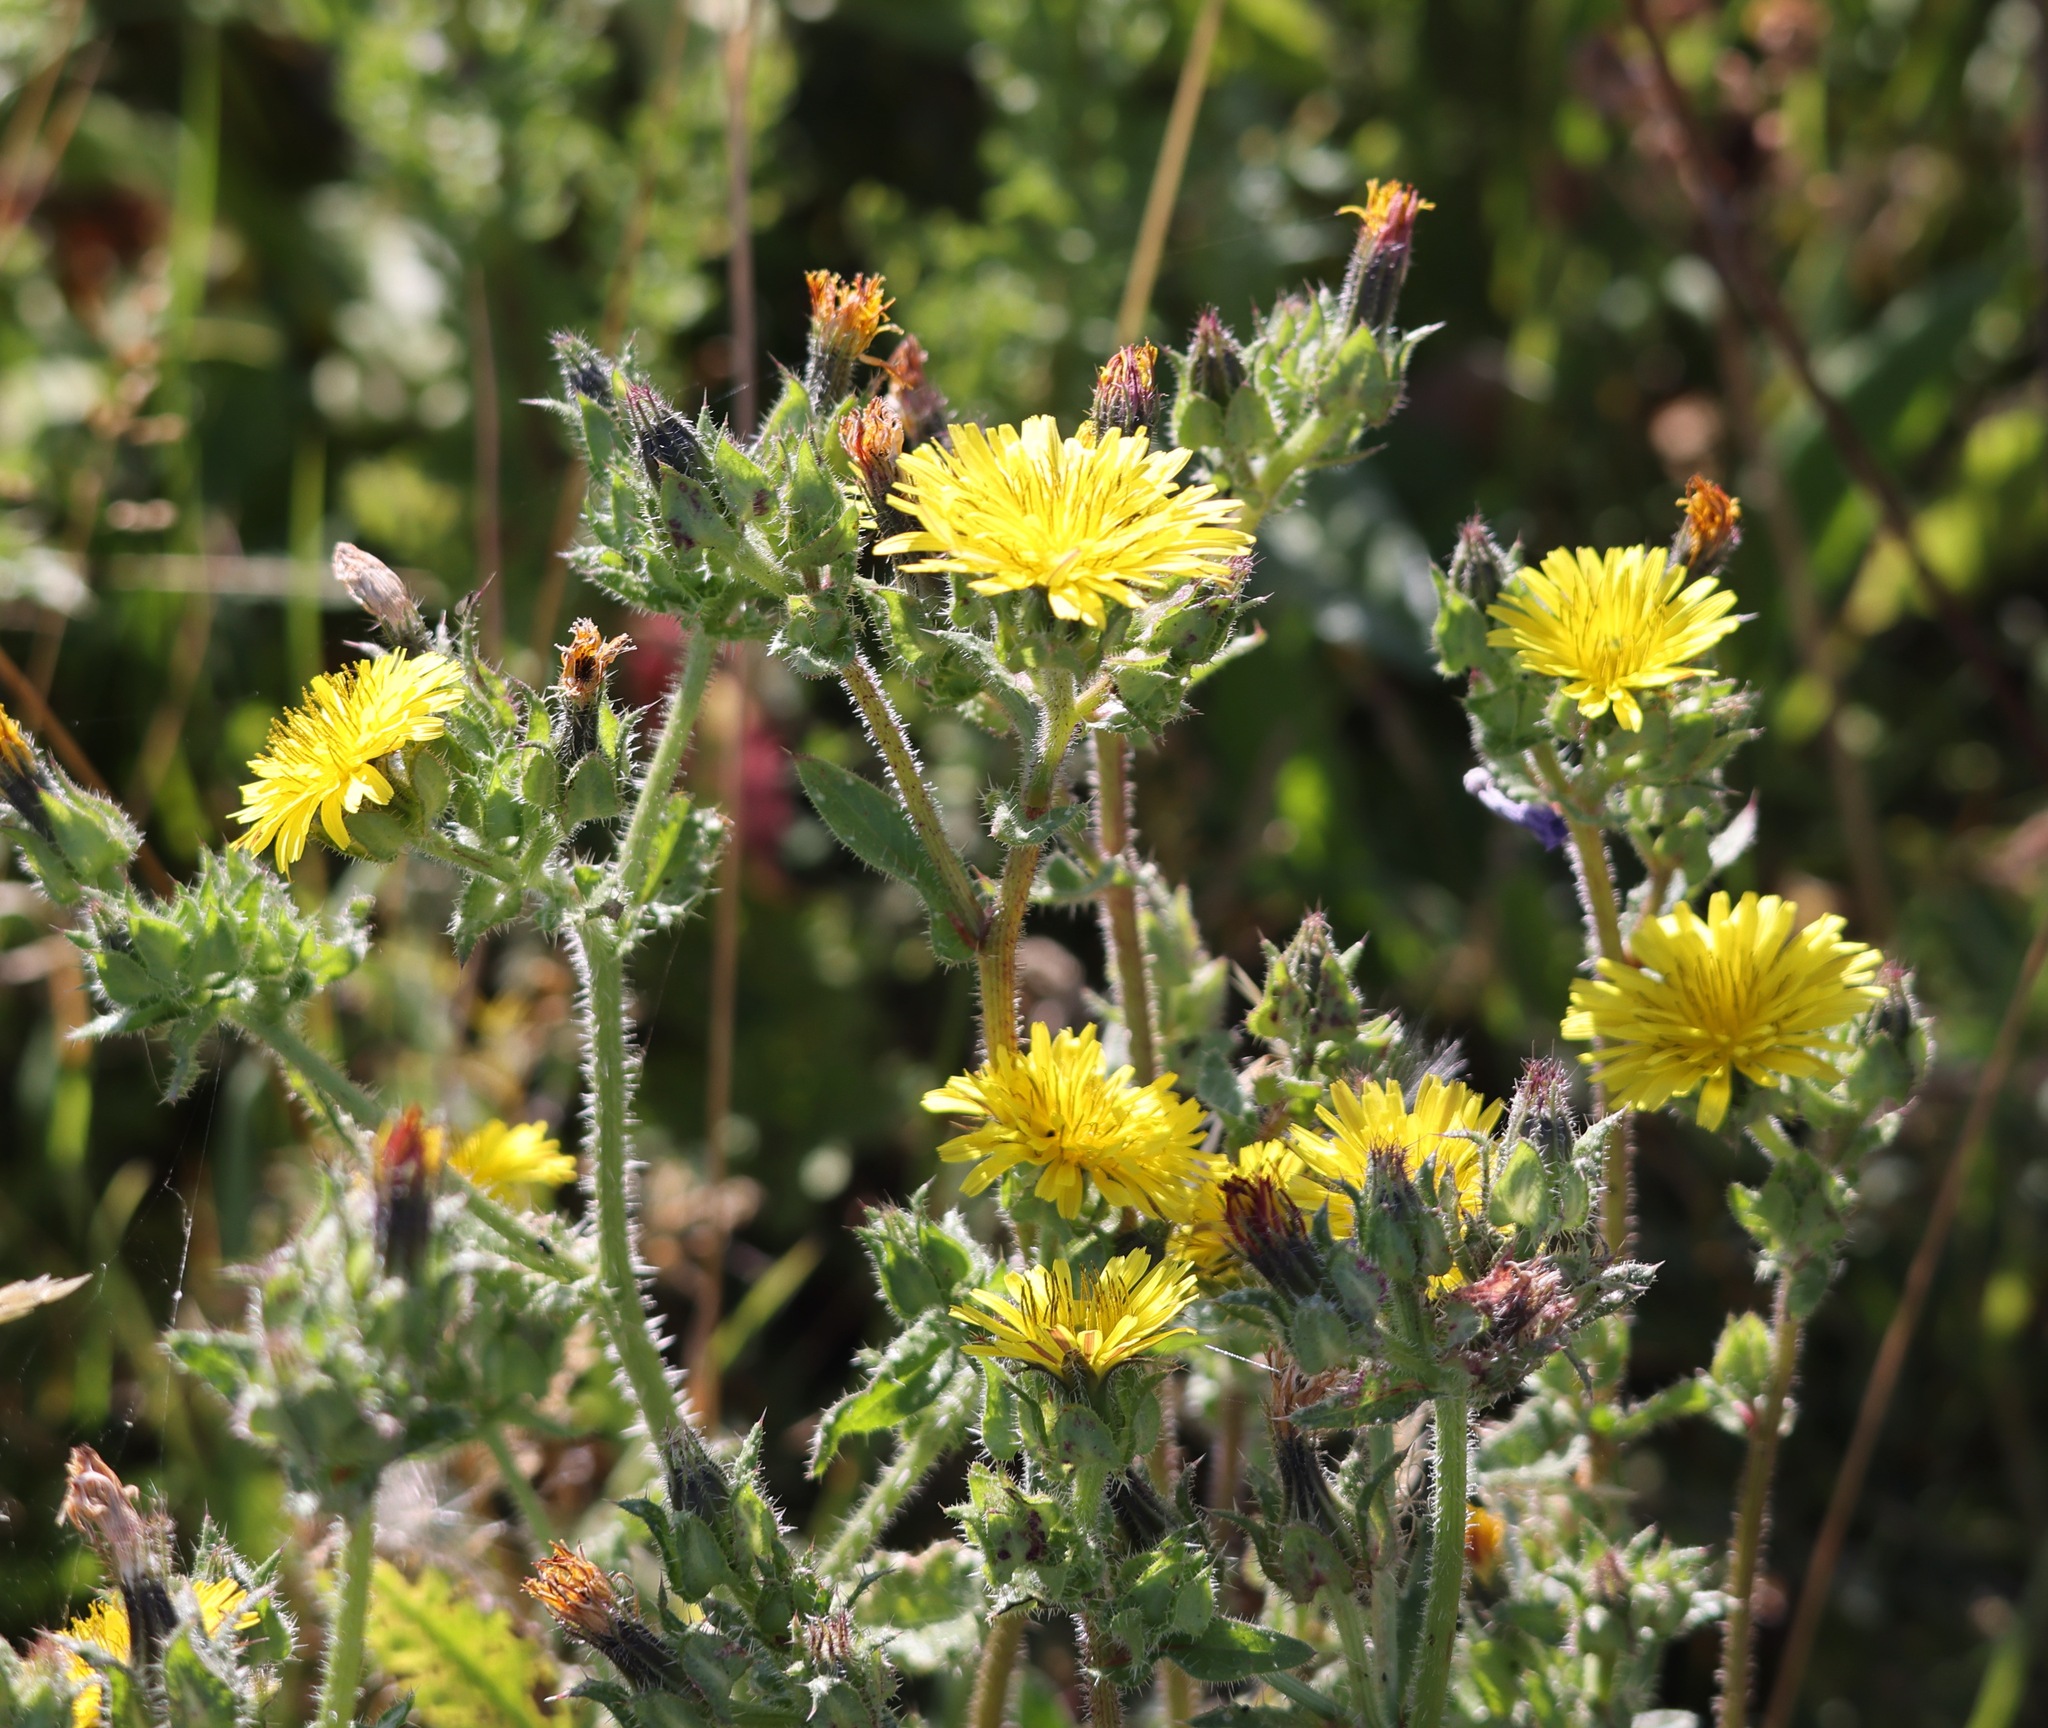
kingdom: Plantae
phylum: Tracheophyta
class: Magnoliopsida
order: Asterales
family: Asteraceae
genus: Helminthotheca
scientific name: Helminthotheca echioides
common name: Ox-tongue
